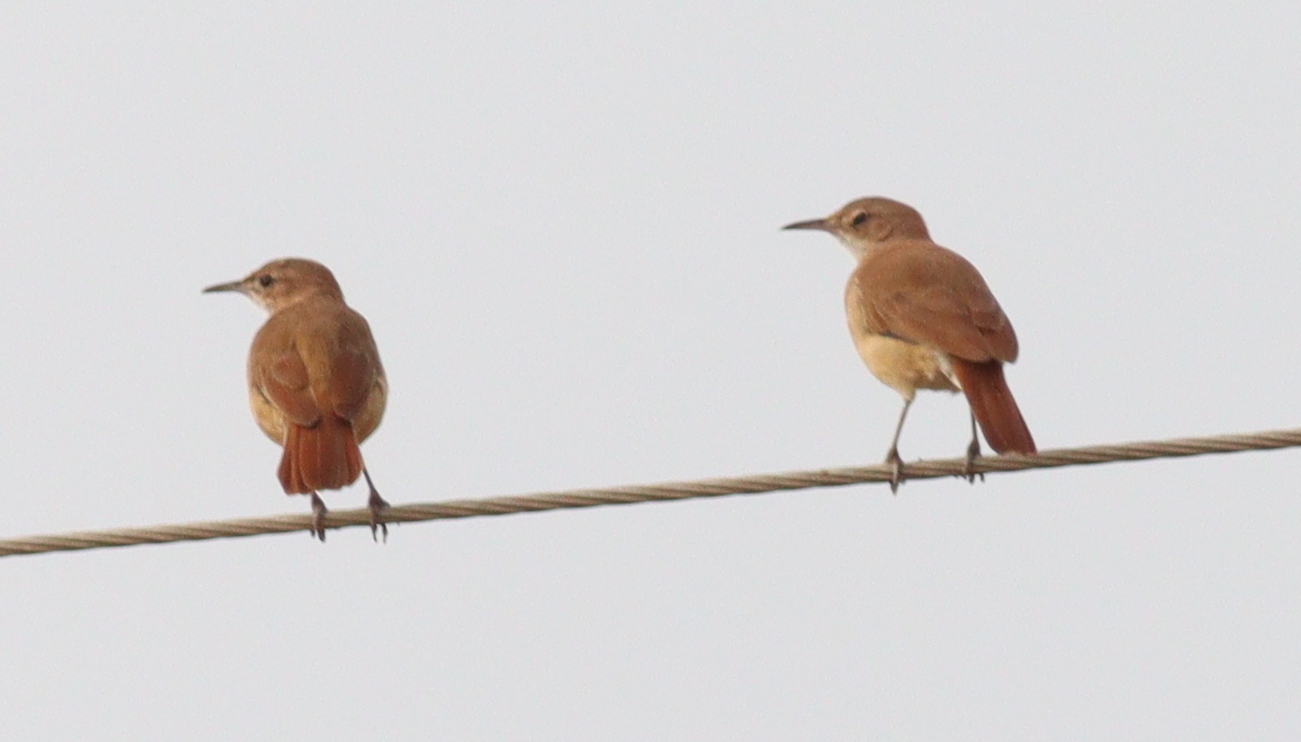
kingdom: Animalia
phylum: Chordata
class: Aves
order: Passeriformes
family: Furnariidae
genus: Furnarius
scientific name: Furnarius rufus
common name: Rufous hornero
